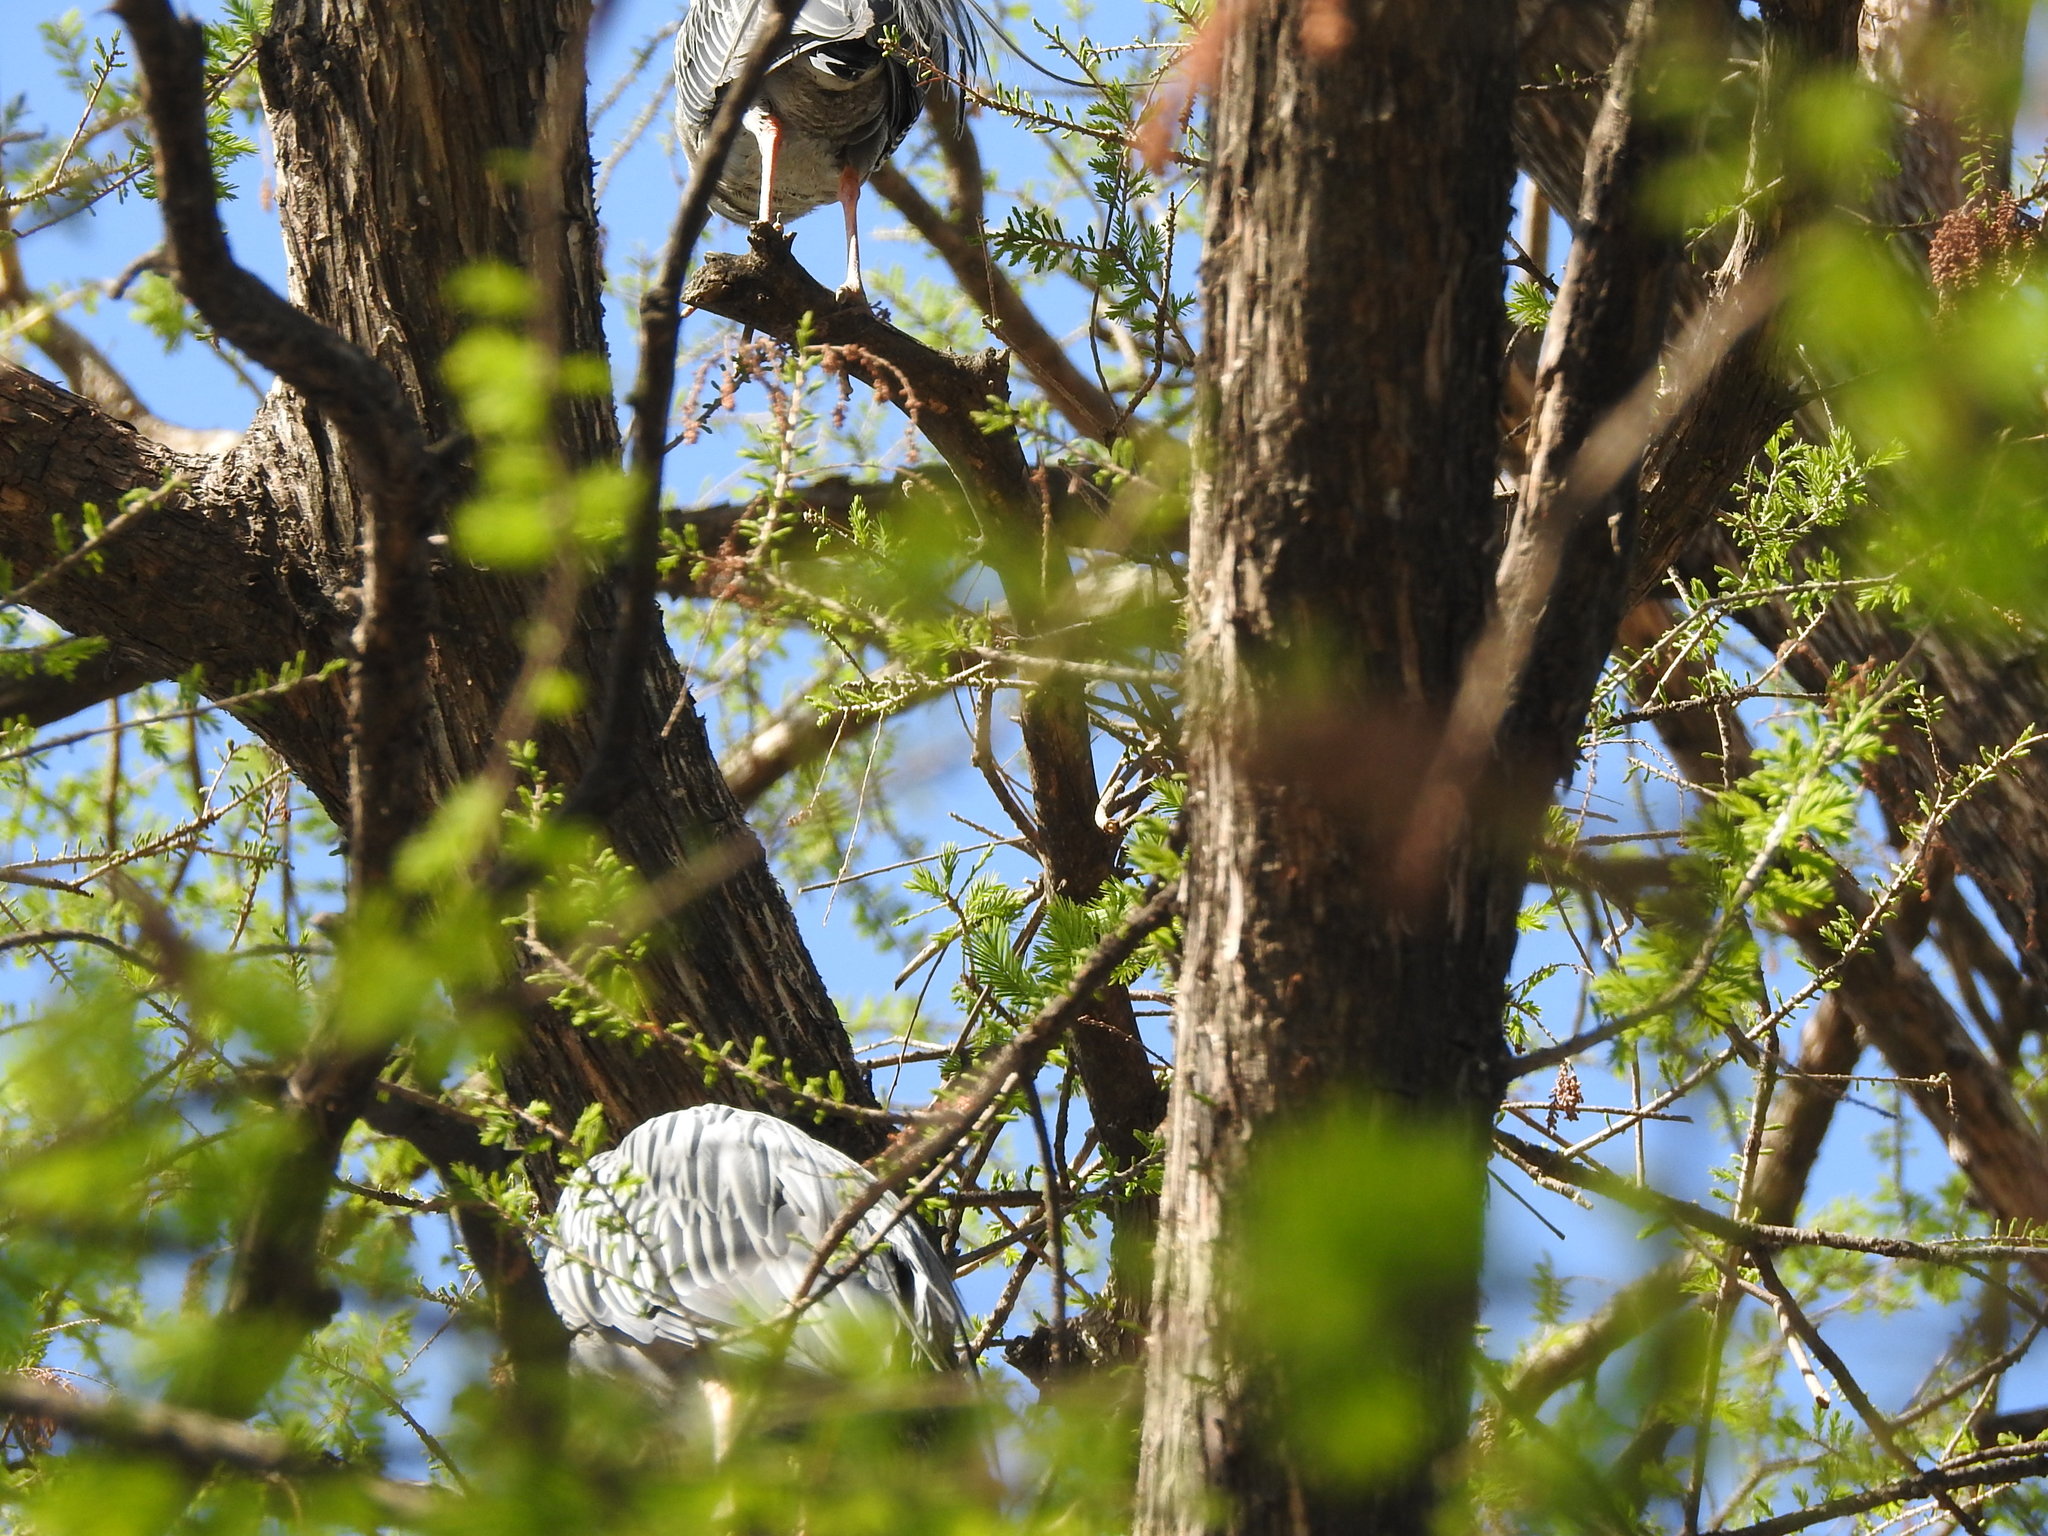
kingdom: Animalia
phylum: Chordata
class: Aves
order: Pelecaniformes
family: Ardeidae
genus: Nyctanassa
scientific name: Nyctanassa violacea
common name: Yellow-crowned night heron
